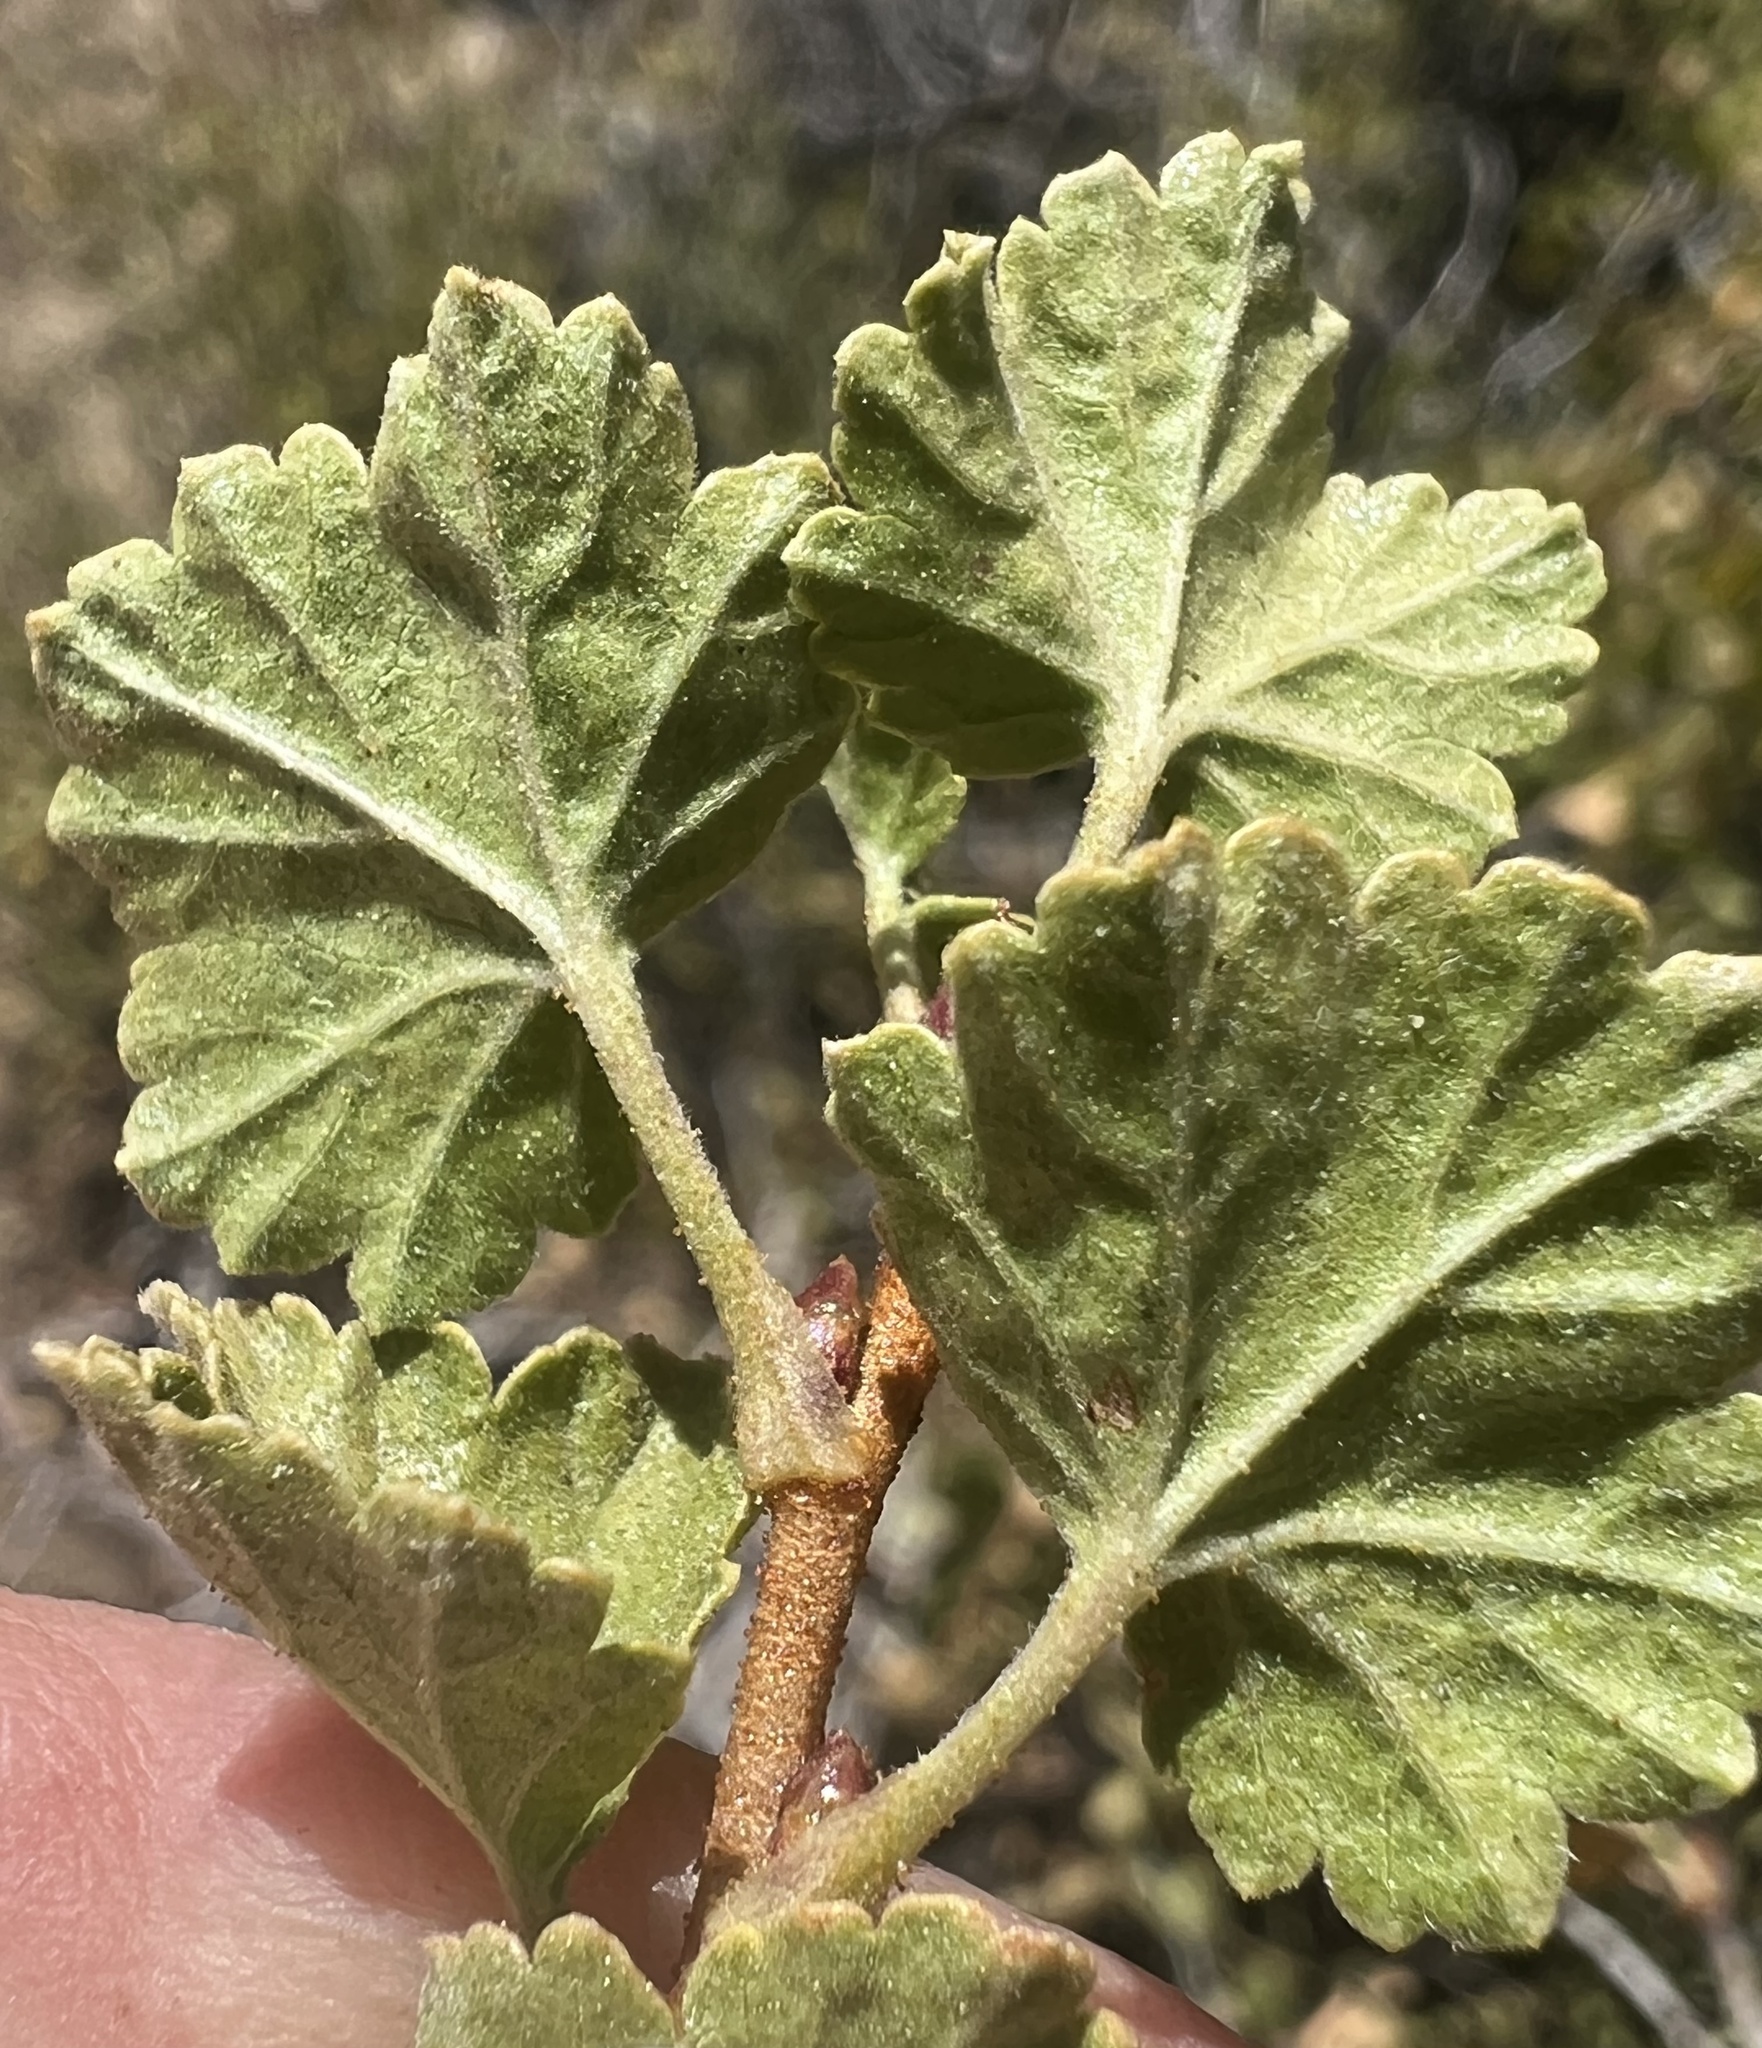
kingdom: Plantae
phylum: Tracheophyta
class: Magnoliopsida
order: Saxifragales
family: Grossulariaceae
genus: Ribes
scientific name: Ribes cereum
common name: Wax currant
